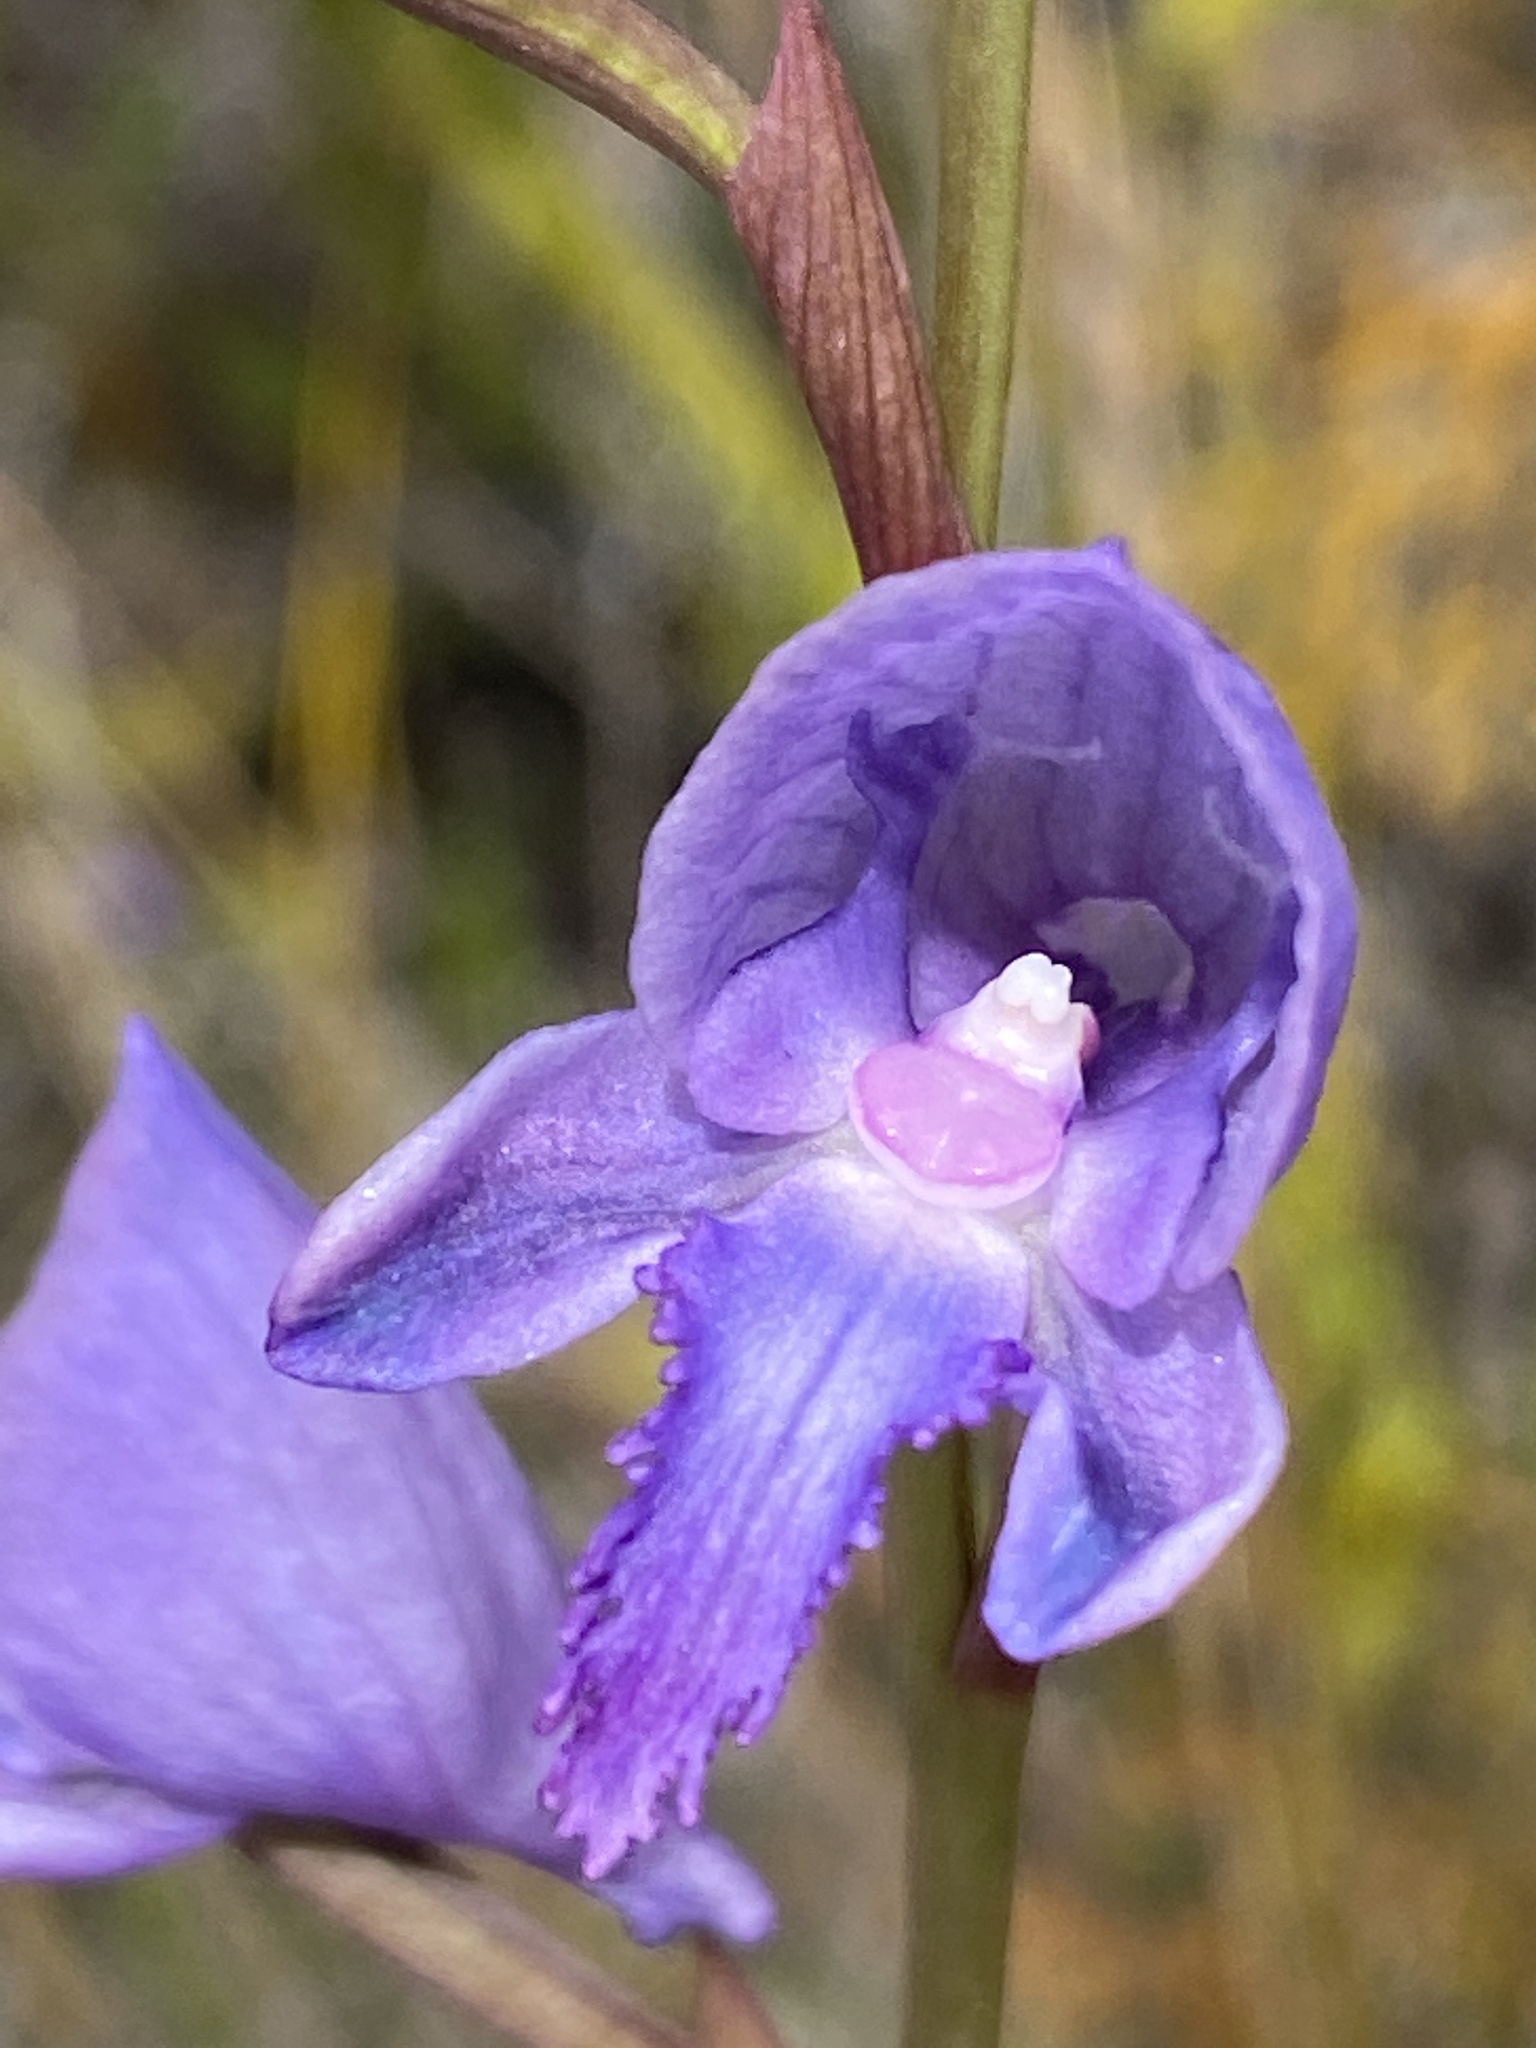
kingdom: Plantae
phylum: Tracheophyta
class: Liliopsida
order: Asparagales
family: Orchidaceae
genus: Disa
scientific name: Disa hians
